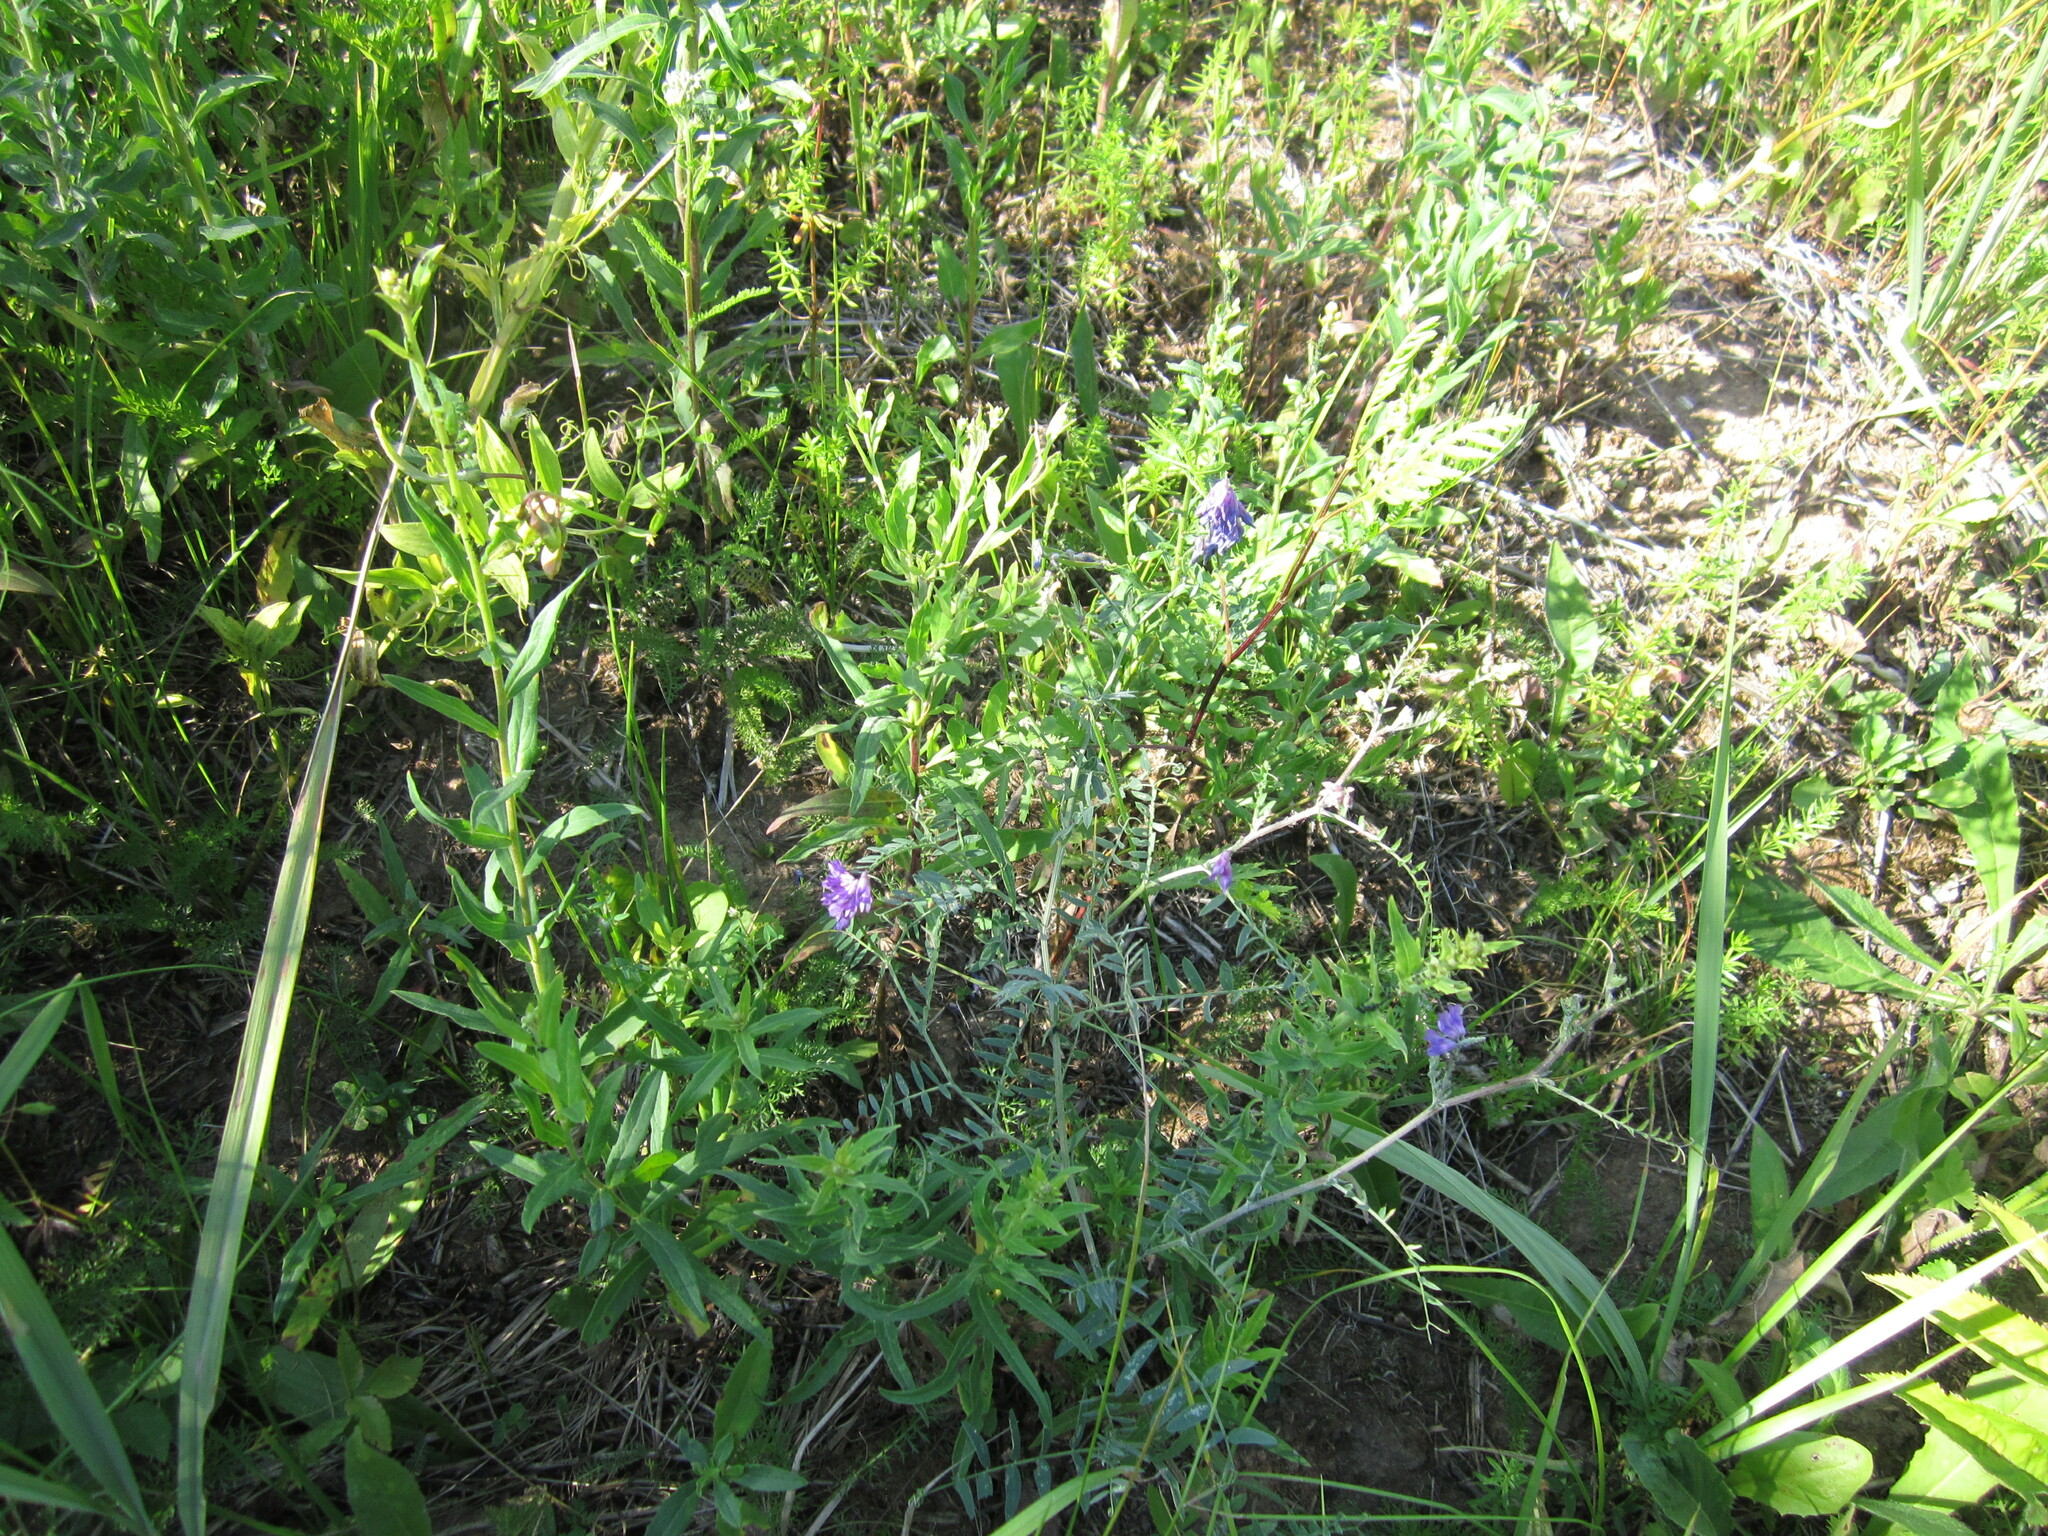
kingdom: Plantae
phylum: Tracheophyta
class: Magnoliopsida
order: Fabales
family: Fabaceae
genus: Vicia
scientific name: Vicia cracca
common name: Bird vetch
